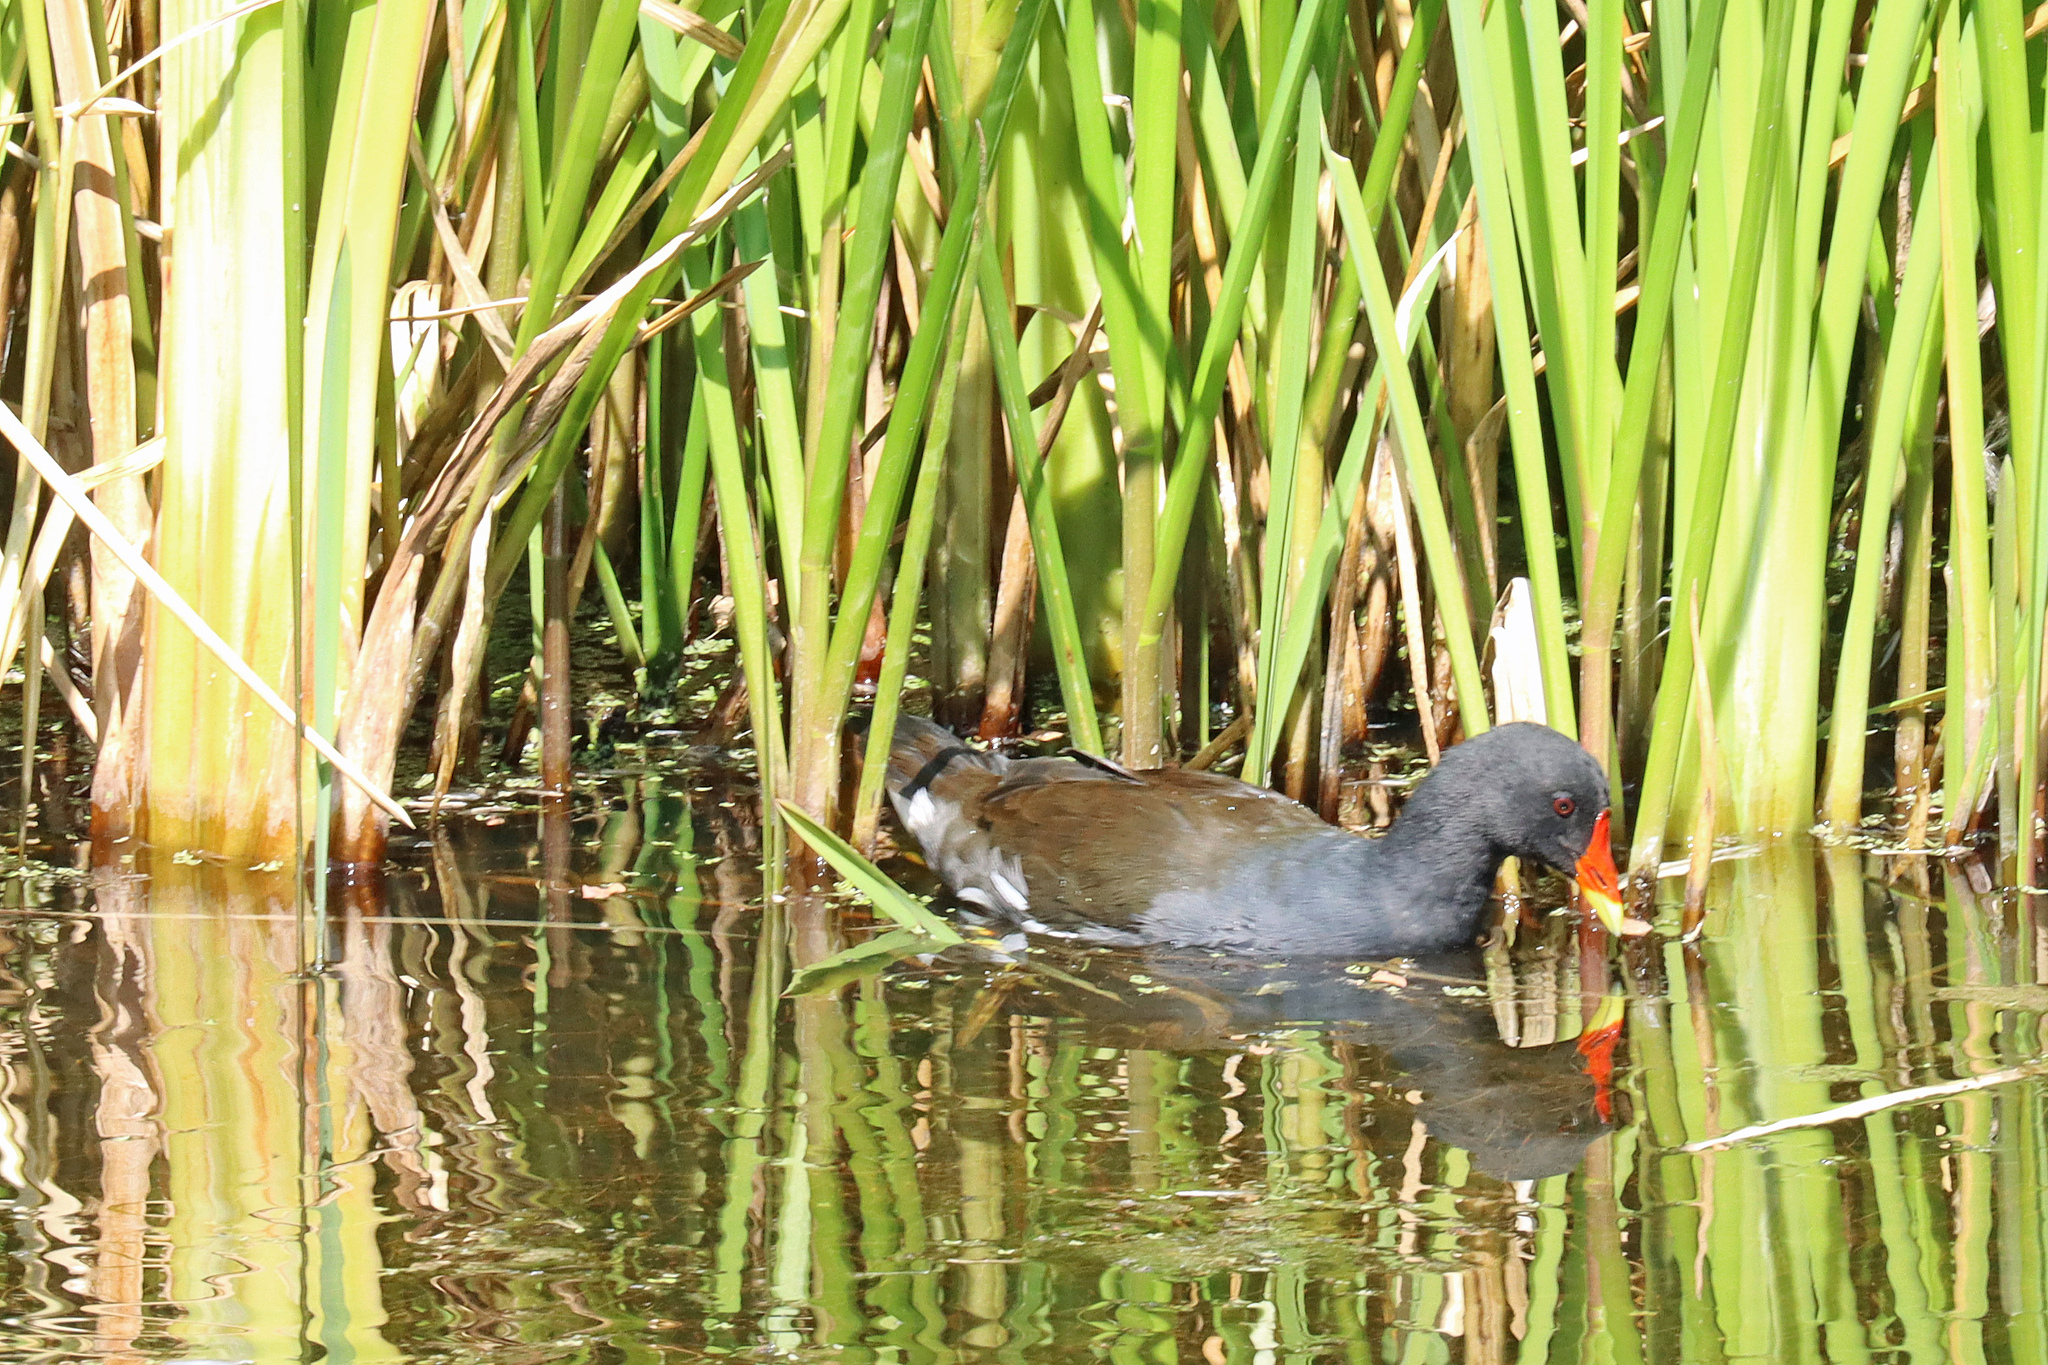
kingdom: Animalia
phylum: Chordata
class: Aves
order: Gruiformes
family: Rallidae
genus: Gallinula
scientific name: Gallinula chloropus
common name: Common moorhen
